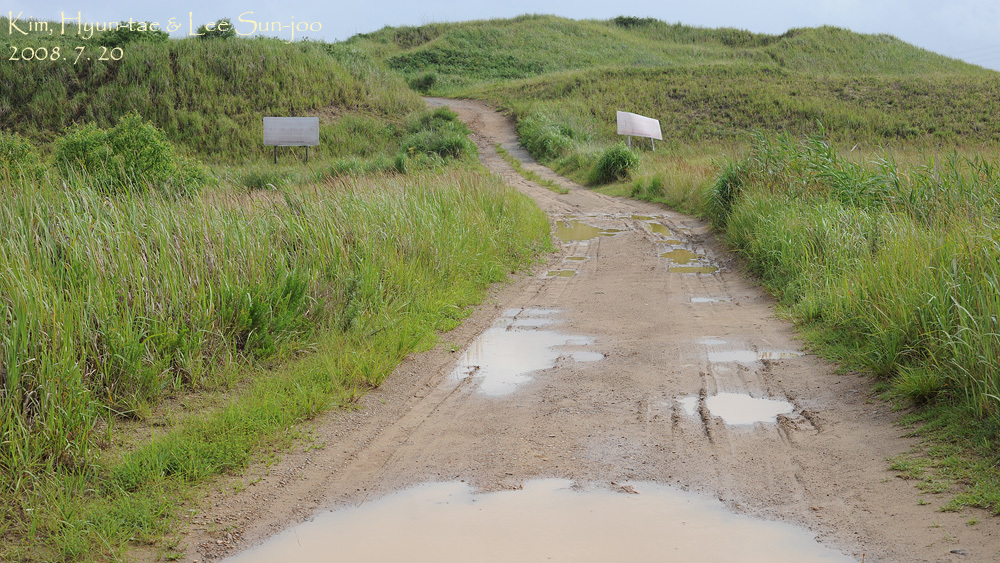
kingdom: Animalia
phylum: Chordata
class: Amphibia
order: Anura
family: Hylidae
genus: Dryophytes
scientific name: Dryophytes japonicus
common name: Japanese treefrog
